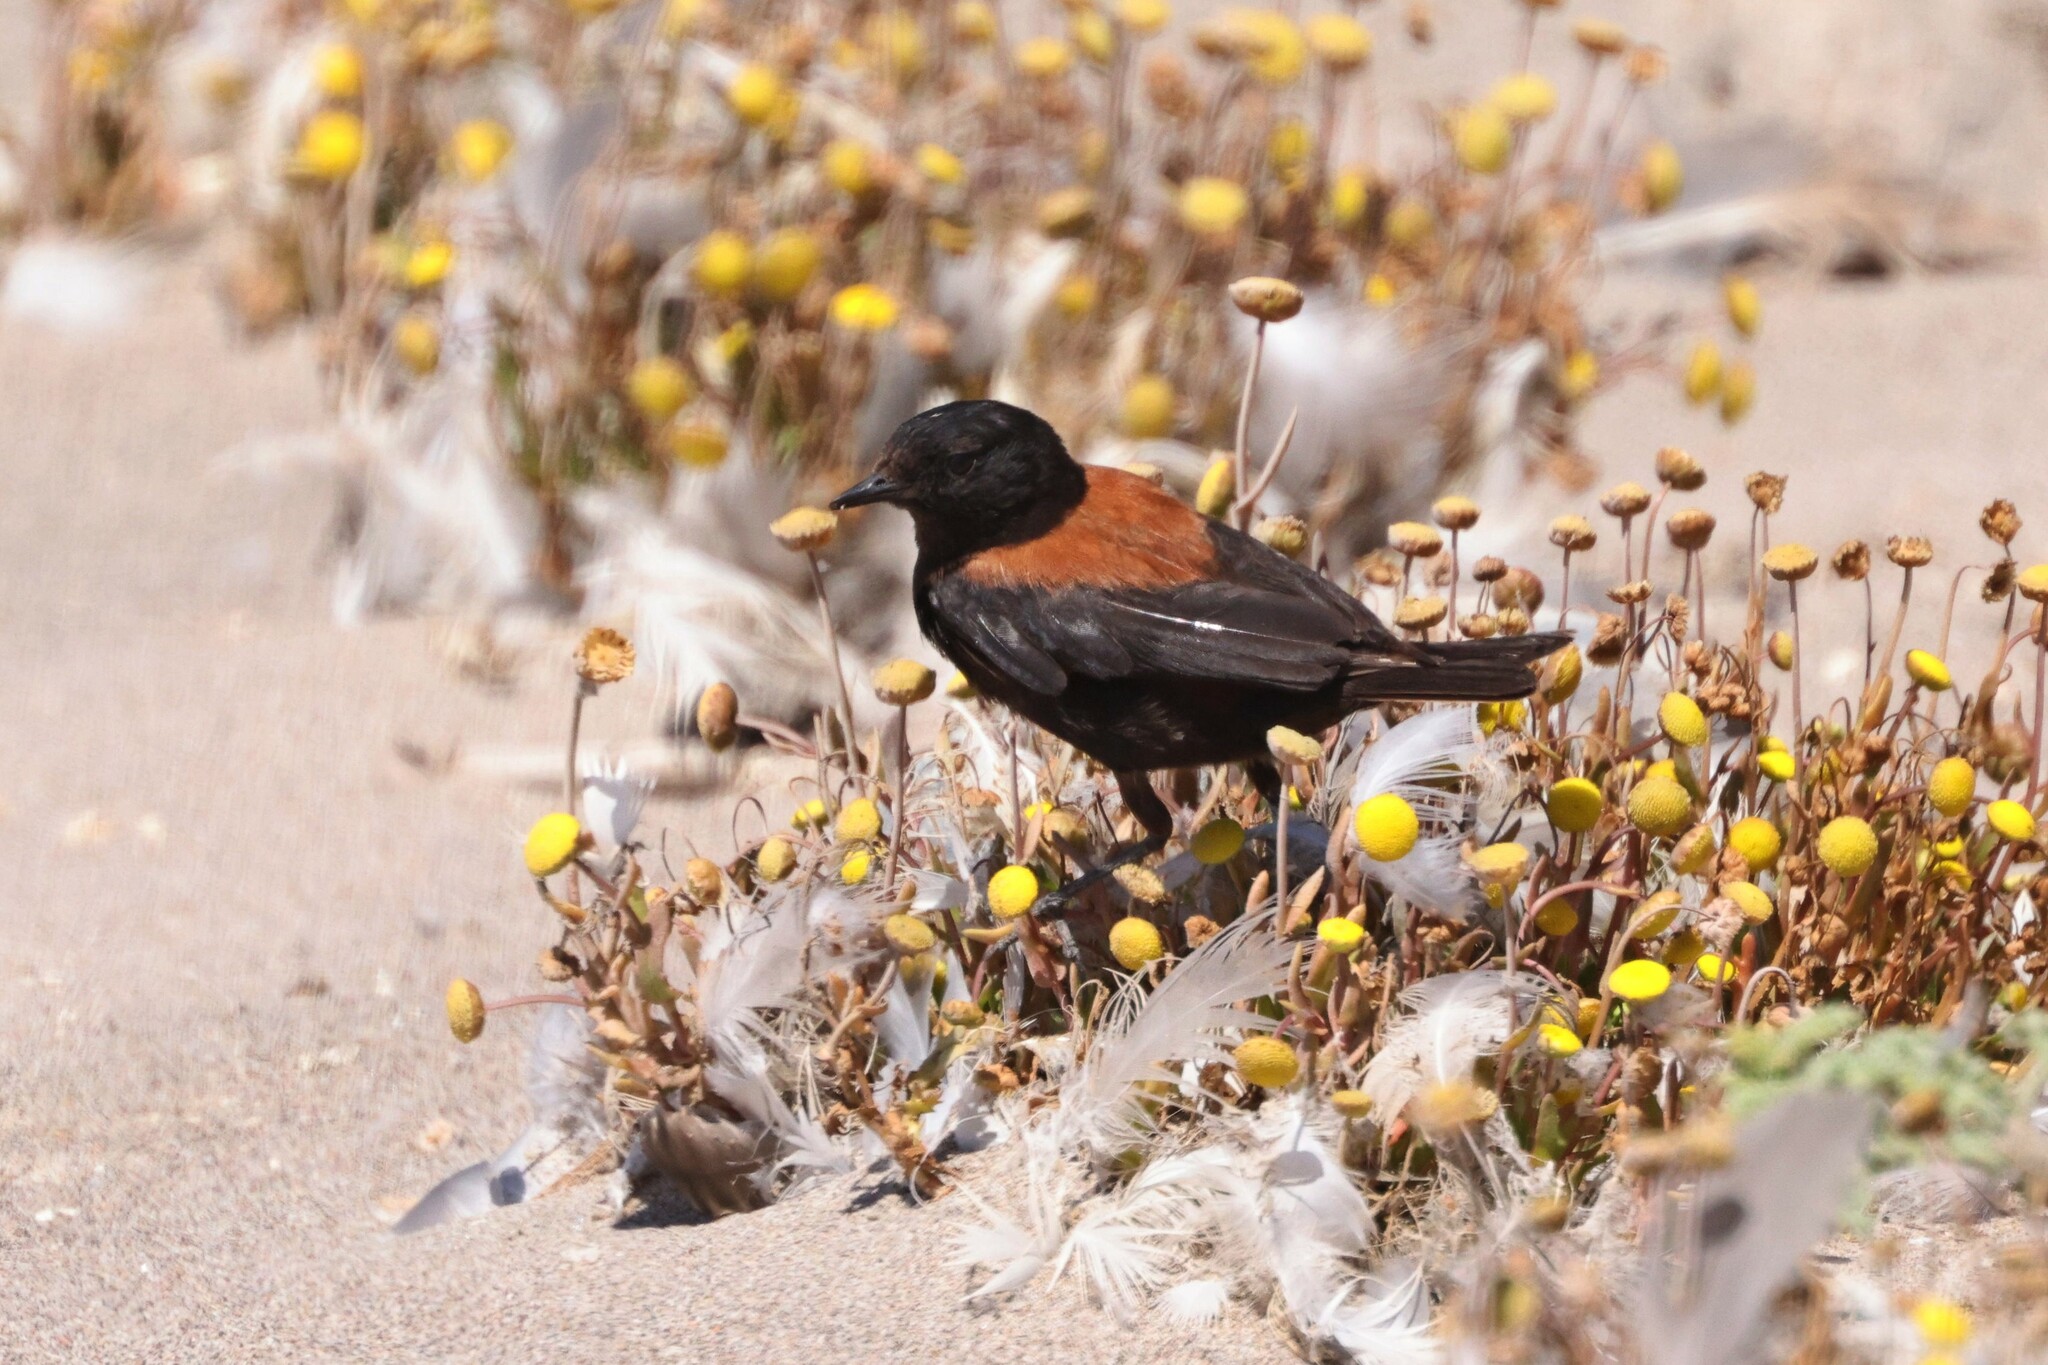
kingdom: Animalia
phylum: Chordata
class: Aves
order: Passeriformes
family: Tyrannidae
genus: Lessonia
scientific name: Lessonia rufa
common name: Austral negrito
